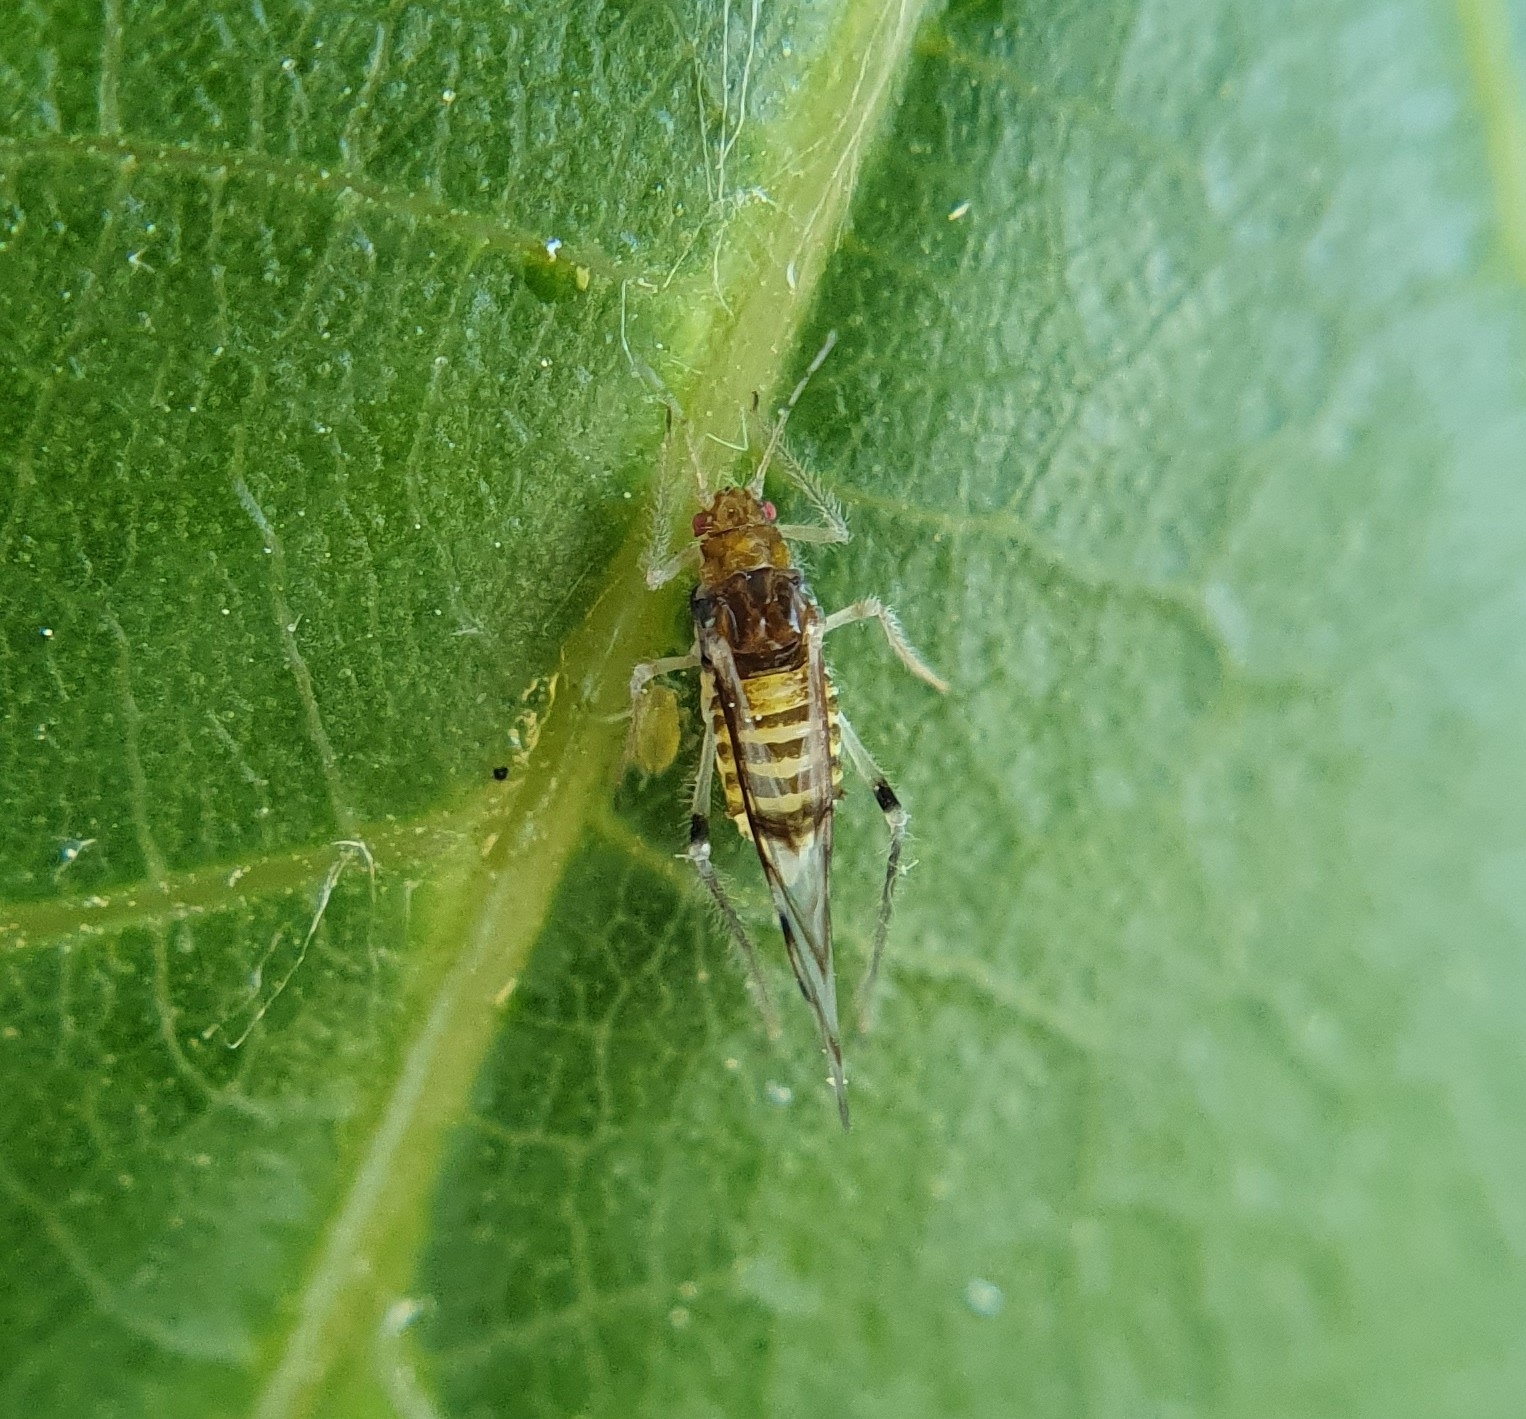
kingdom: Animalia
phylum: Arthropoda
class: Insecta
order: Hemiptera
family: Aphididae
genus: Panaphis
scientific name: Panaphis juglandis
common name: Large walnut aphid
